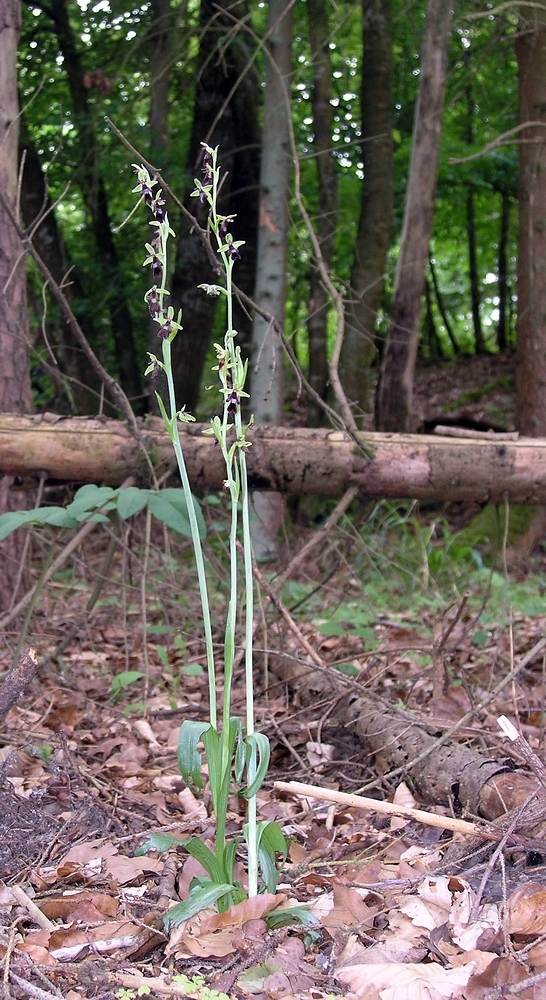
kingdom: Plantae
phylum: Tracheophyta
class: Liliopsida
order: Asparagales
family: Orchidaceae
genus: Ophrys
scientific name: Ophrys insectifera
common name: Fly orchid
